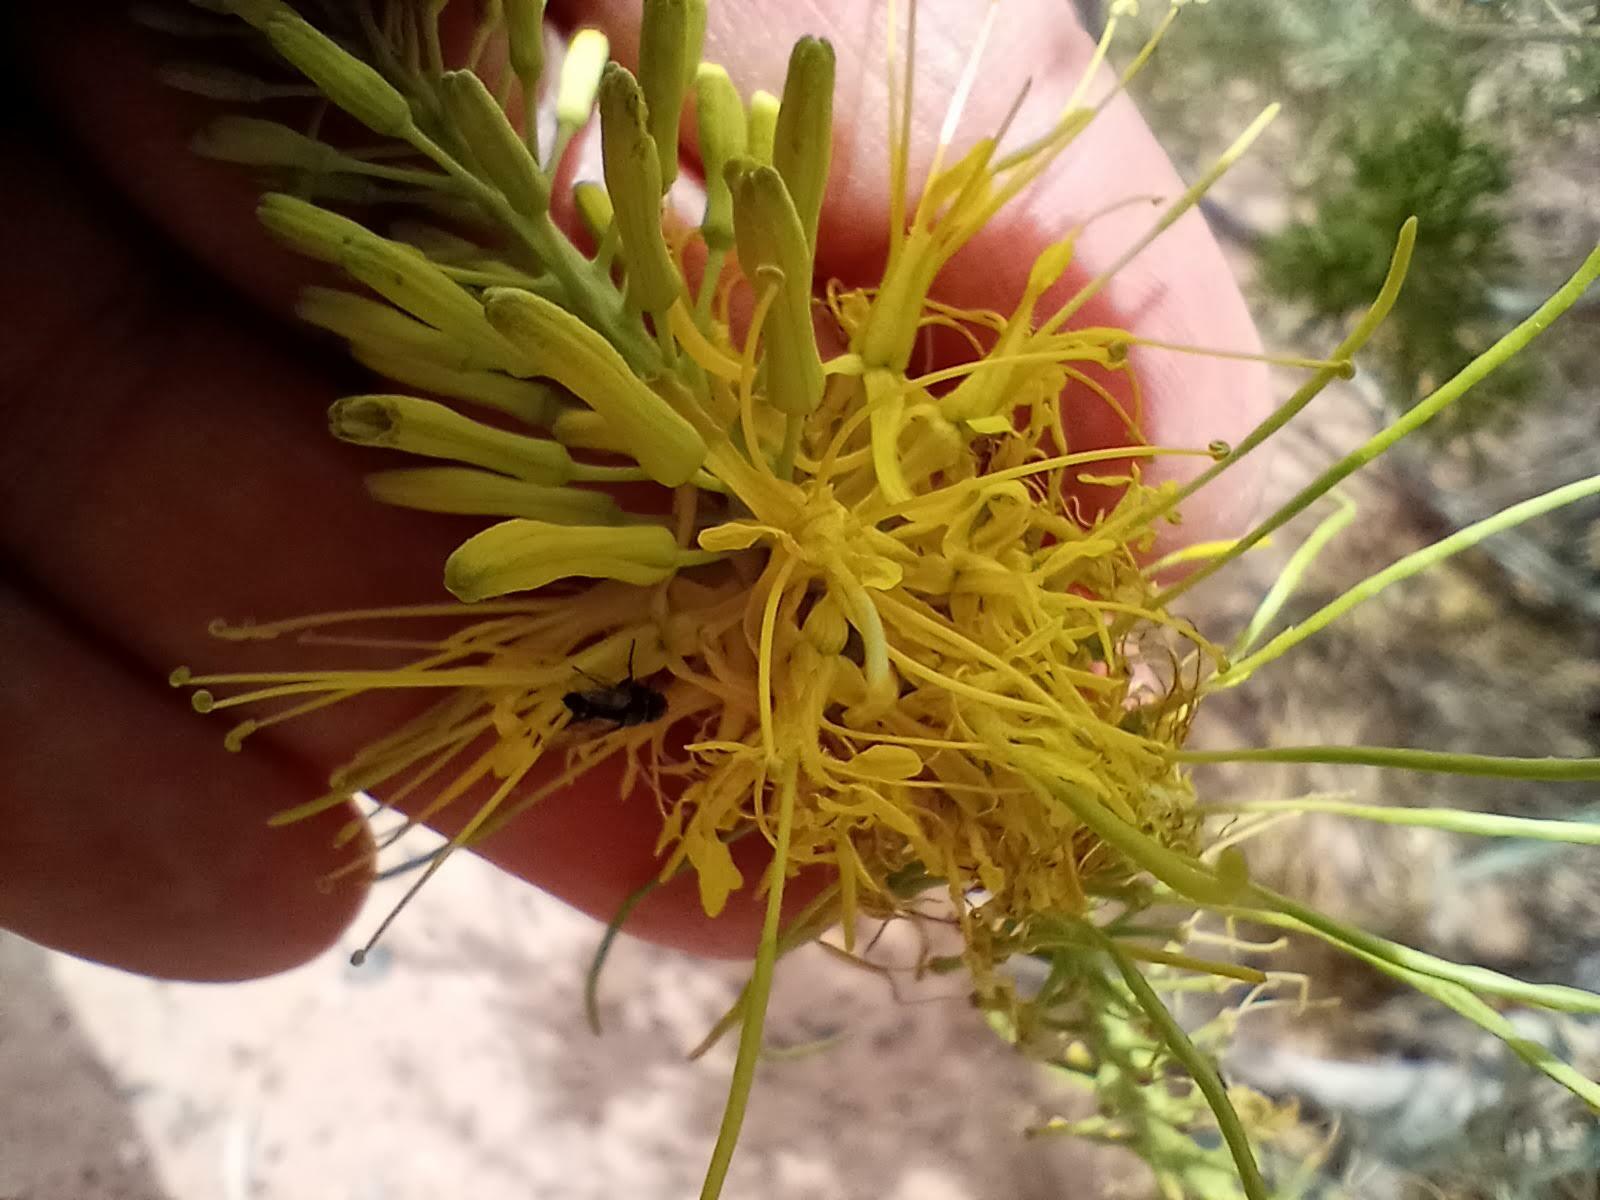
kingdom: Plantae
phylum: Tracheophyta
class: Magnoliopsida
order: Brassicales
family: Brassicaceae
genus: Stanleya
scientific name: Stanleya pinnata
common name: Prince's-plume
